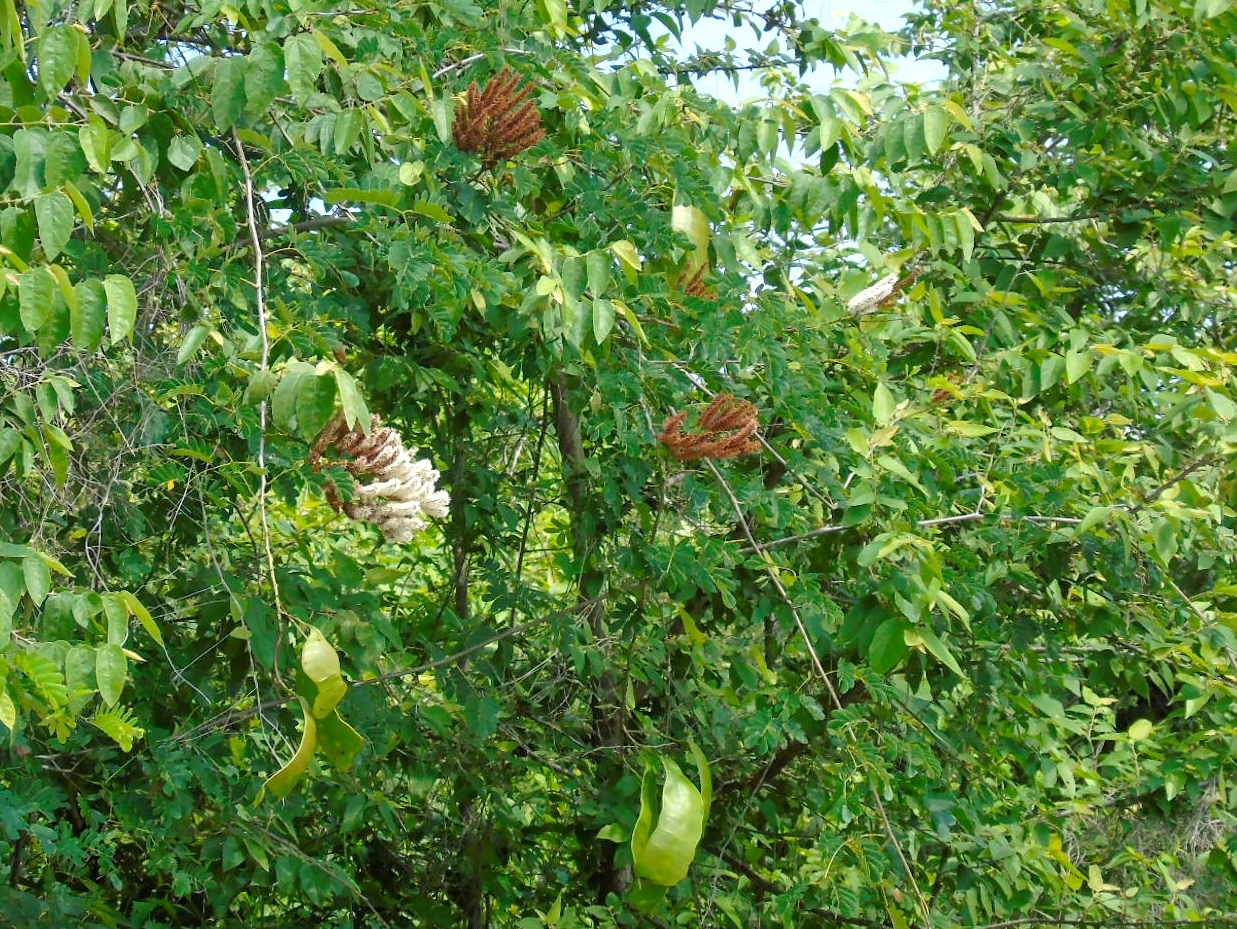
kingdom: Plantae
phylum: Tracheophyta
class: Magnoliopsida
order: Fabales
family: Fabaceae
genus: Entada
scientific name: Entada polystachya
